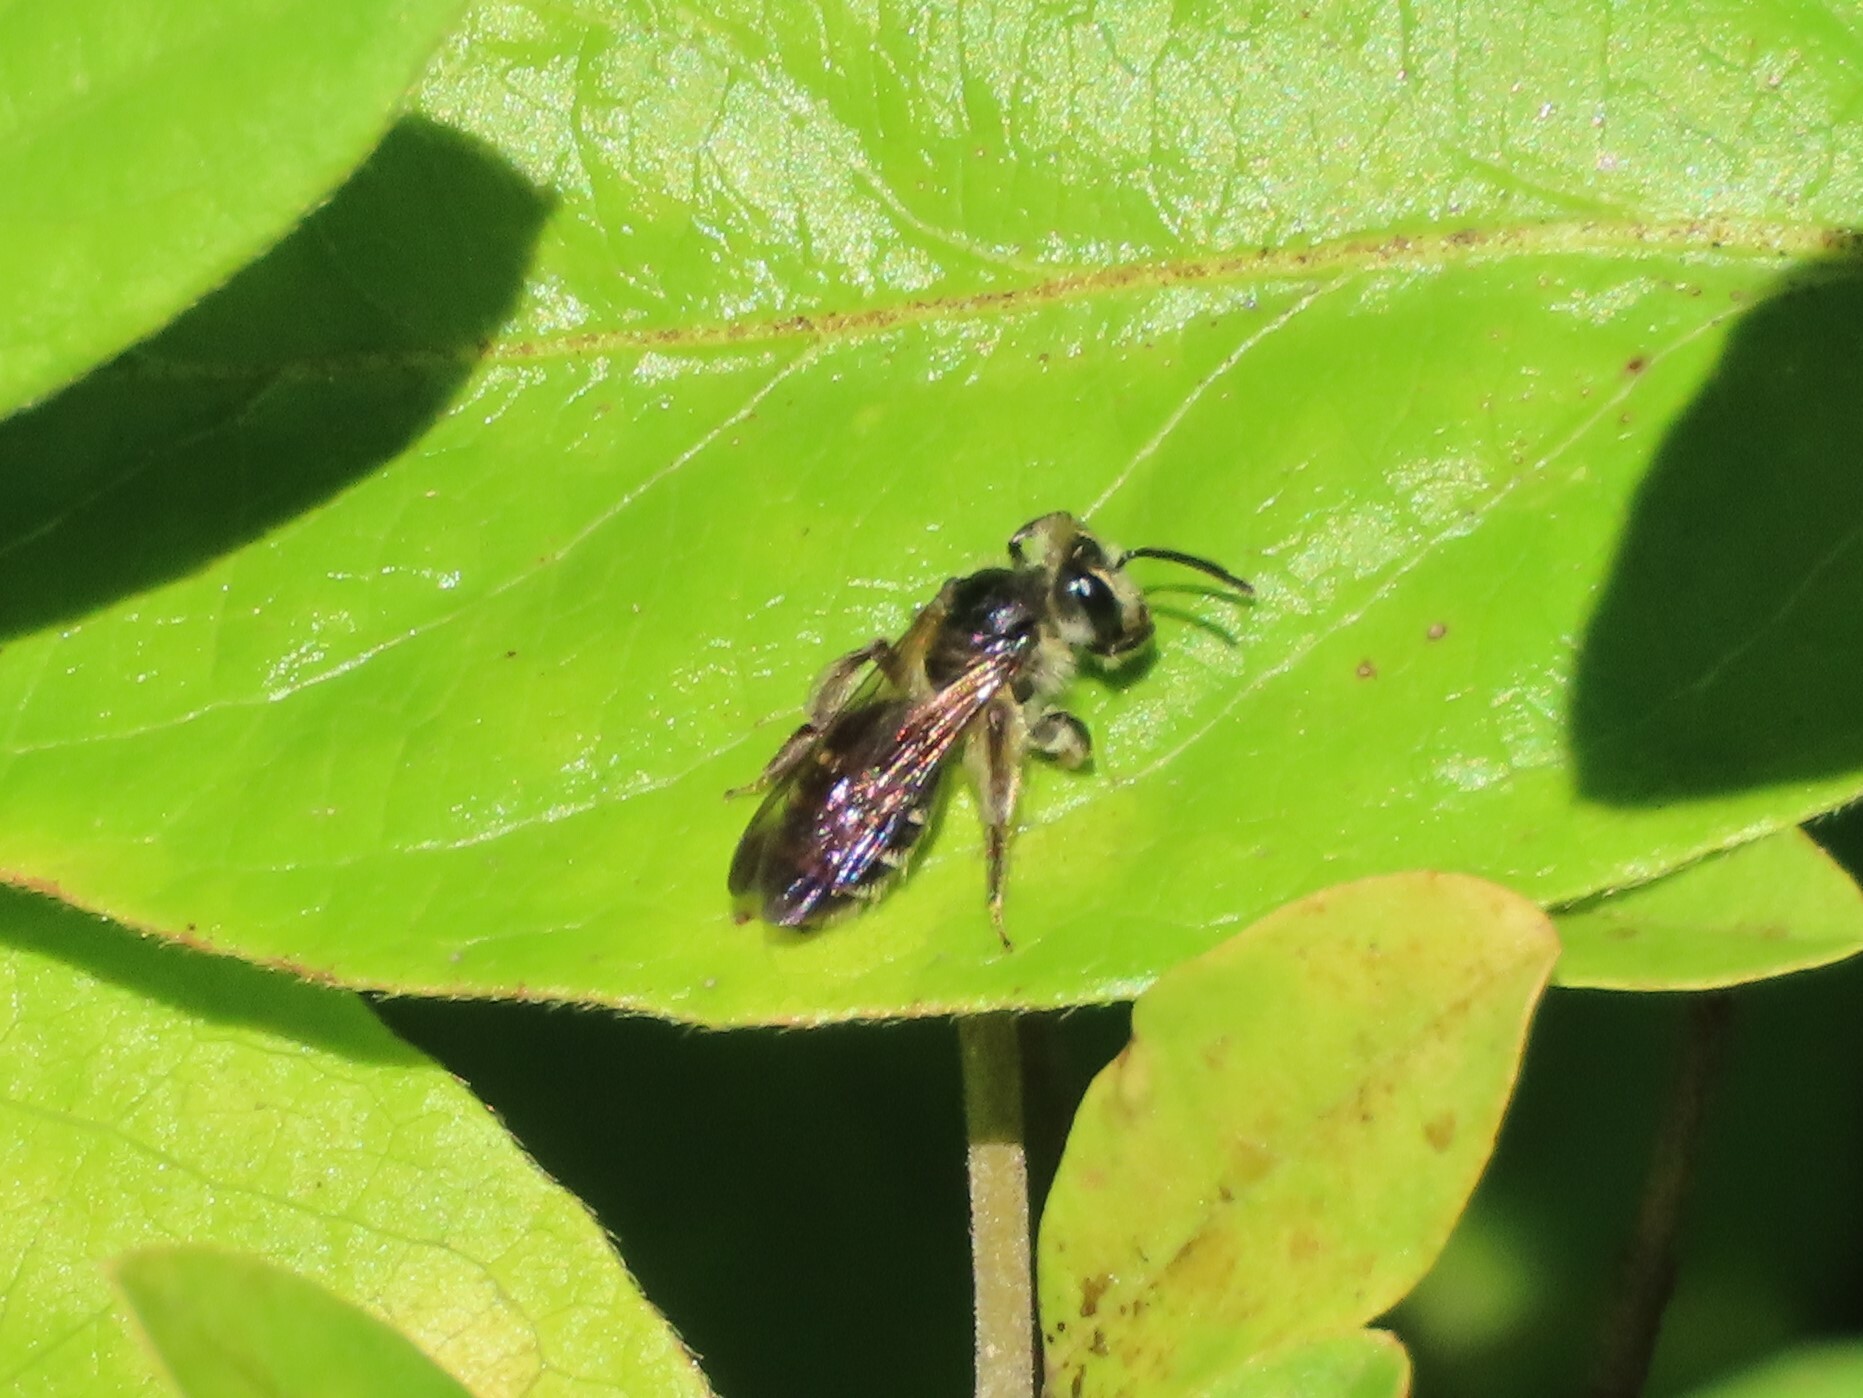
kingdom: Animalia
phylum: Arthropoda
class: Insecta
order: Hymenoptera
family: Andrenidae
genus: Andrena
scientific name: Andrena nubecula
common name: Cloudy-winged mining bee
